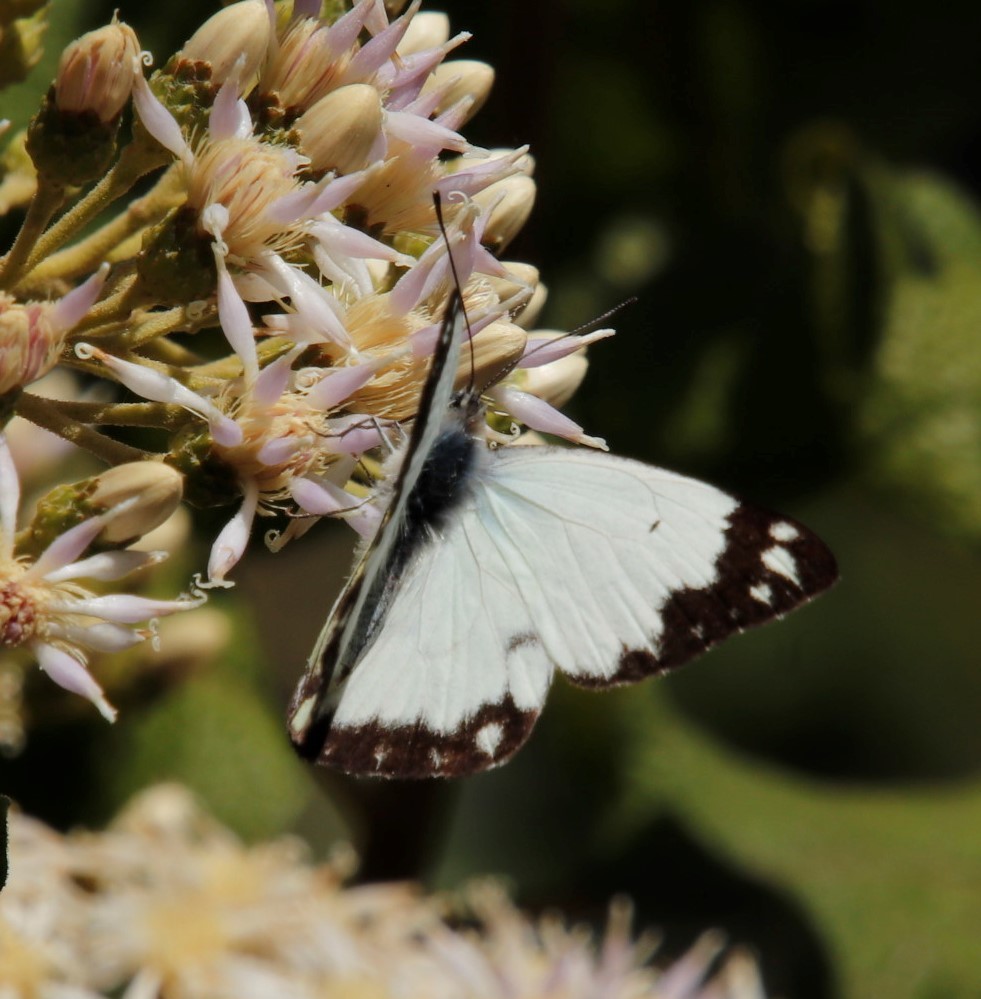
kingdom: Animalia
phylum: Arthropoda
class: Insecta
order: Lepidoptera
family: Pieridae
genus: Belenois
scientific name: Belenois creona
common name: African caper white
